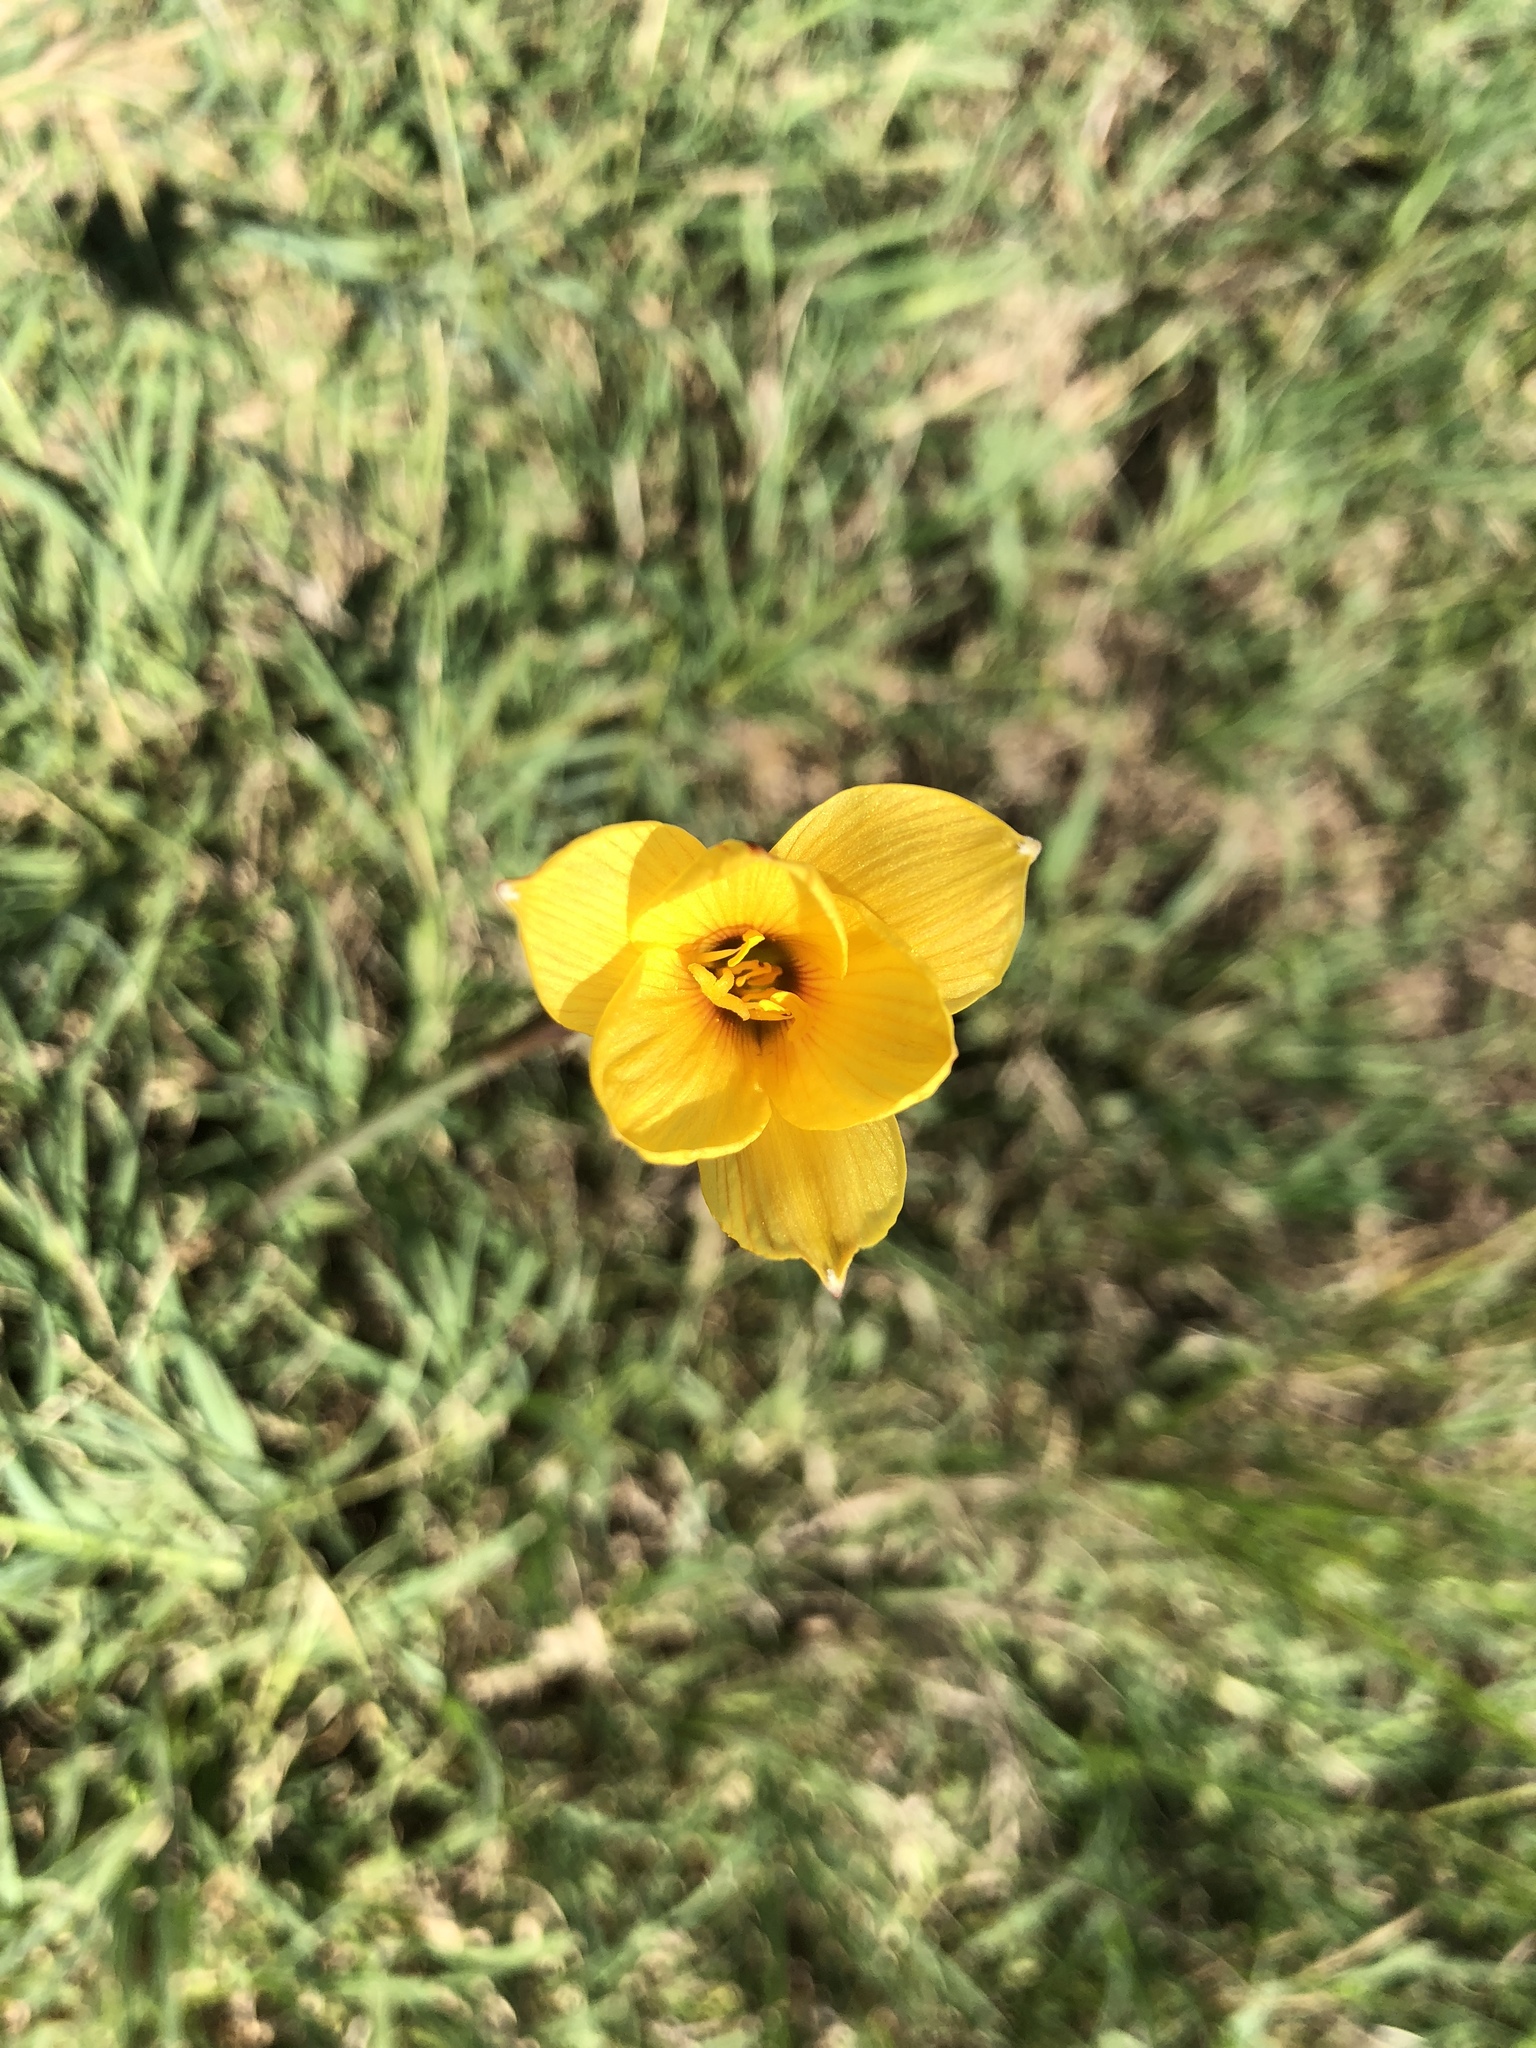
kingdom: Plantae
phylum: Tracheophyta
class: Liliopsida
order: Asparagales
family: Amaryllidaceae
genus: Zephyranthes
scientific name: Zephyranthes tubispatha
